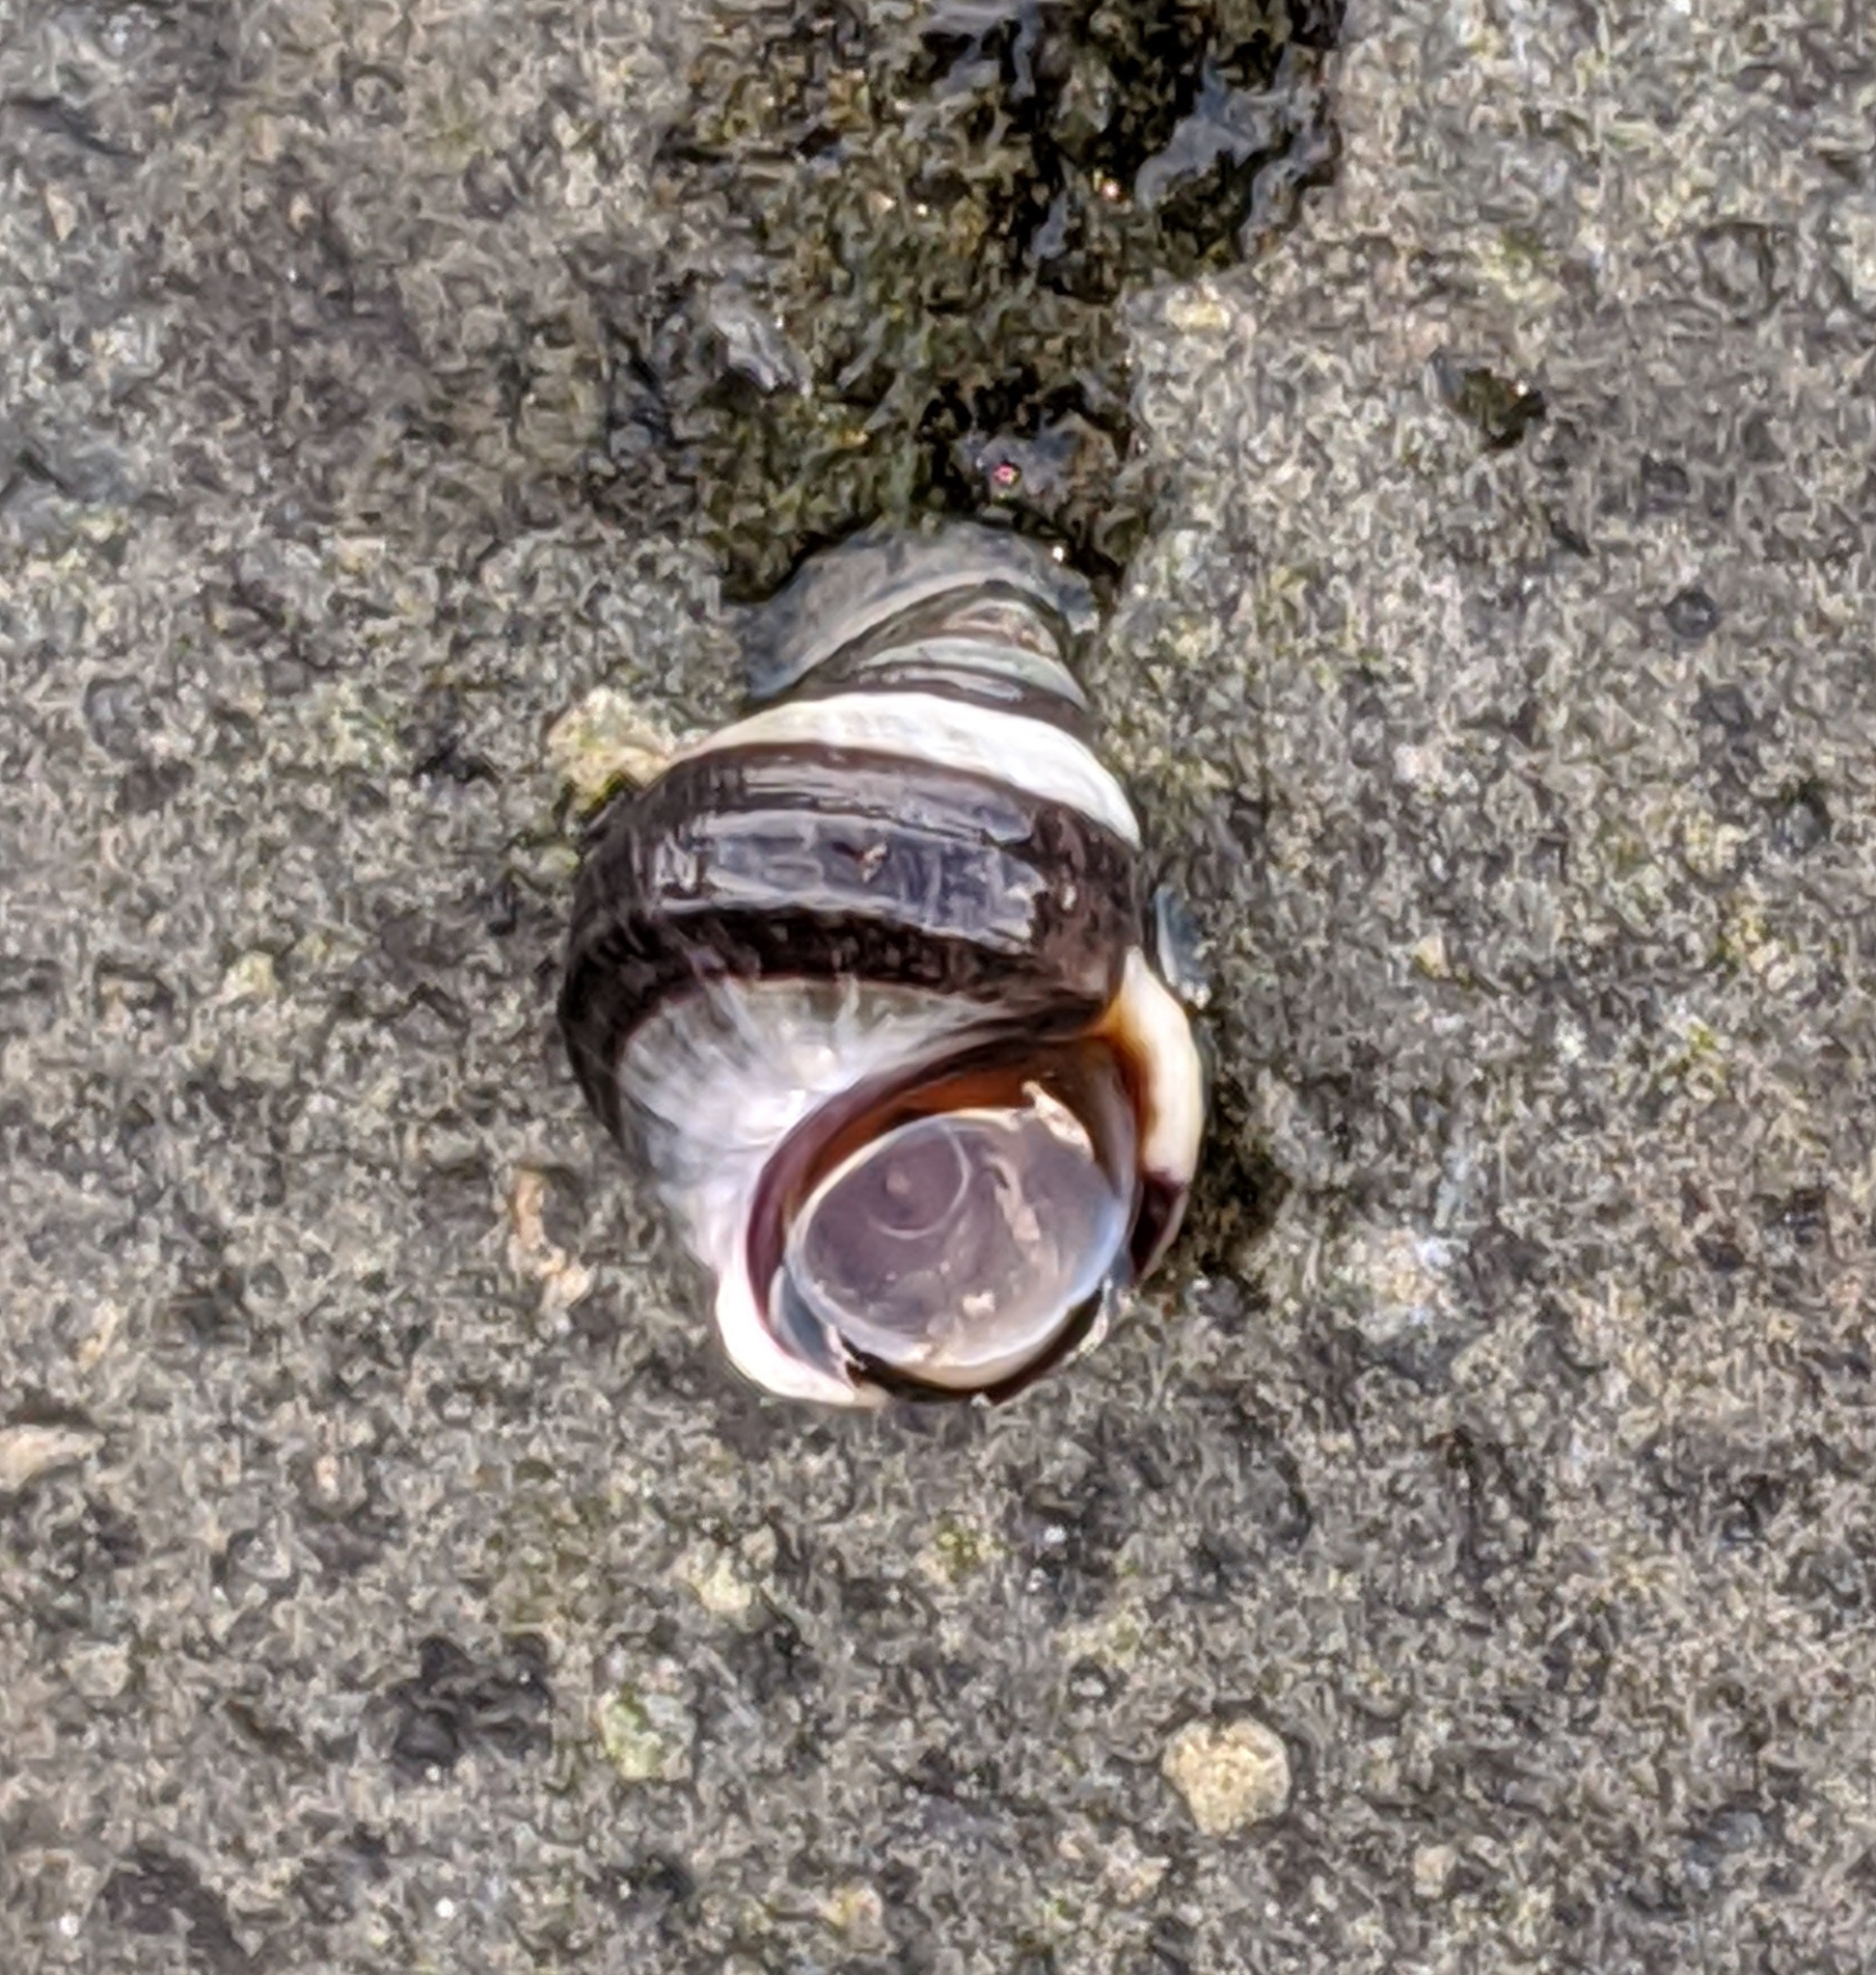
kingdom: Animalia
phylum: Mollusca
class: Gastropoda
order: Littorinimorpha
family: Littorinidae
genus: Littorina
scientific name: Littorina sitkana
